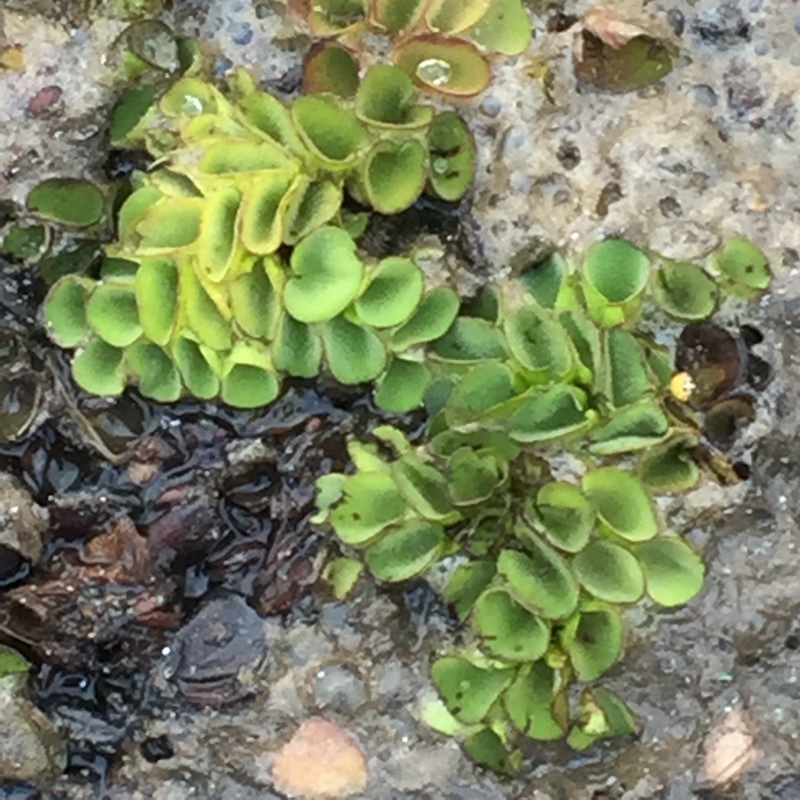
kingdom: Plantae
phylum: Tracheophyta
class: Polypodiopsida
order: Salviniales
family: Salviniaceae
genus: Salvinia
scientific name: Salvinia cucullata
